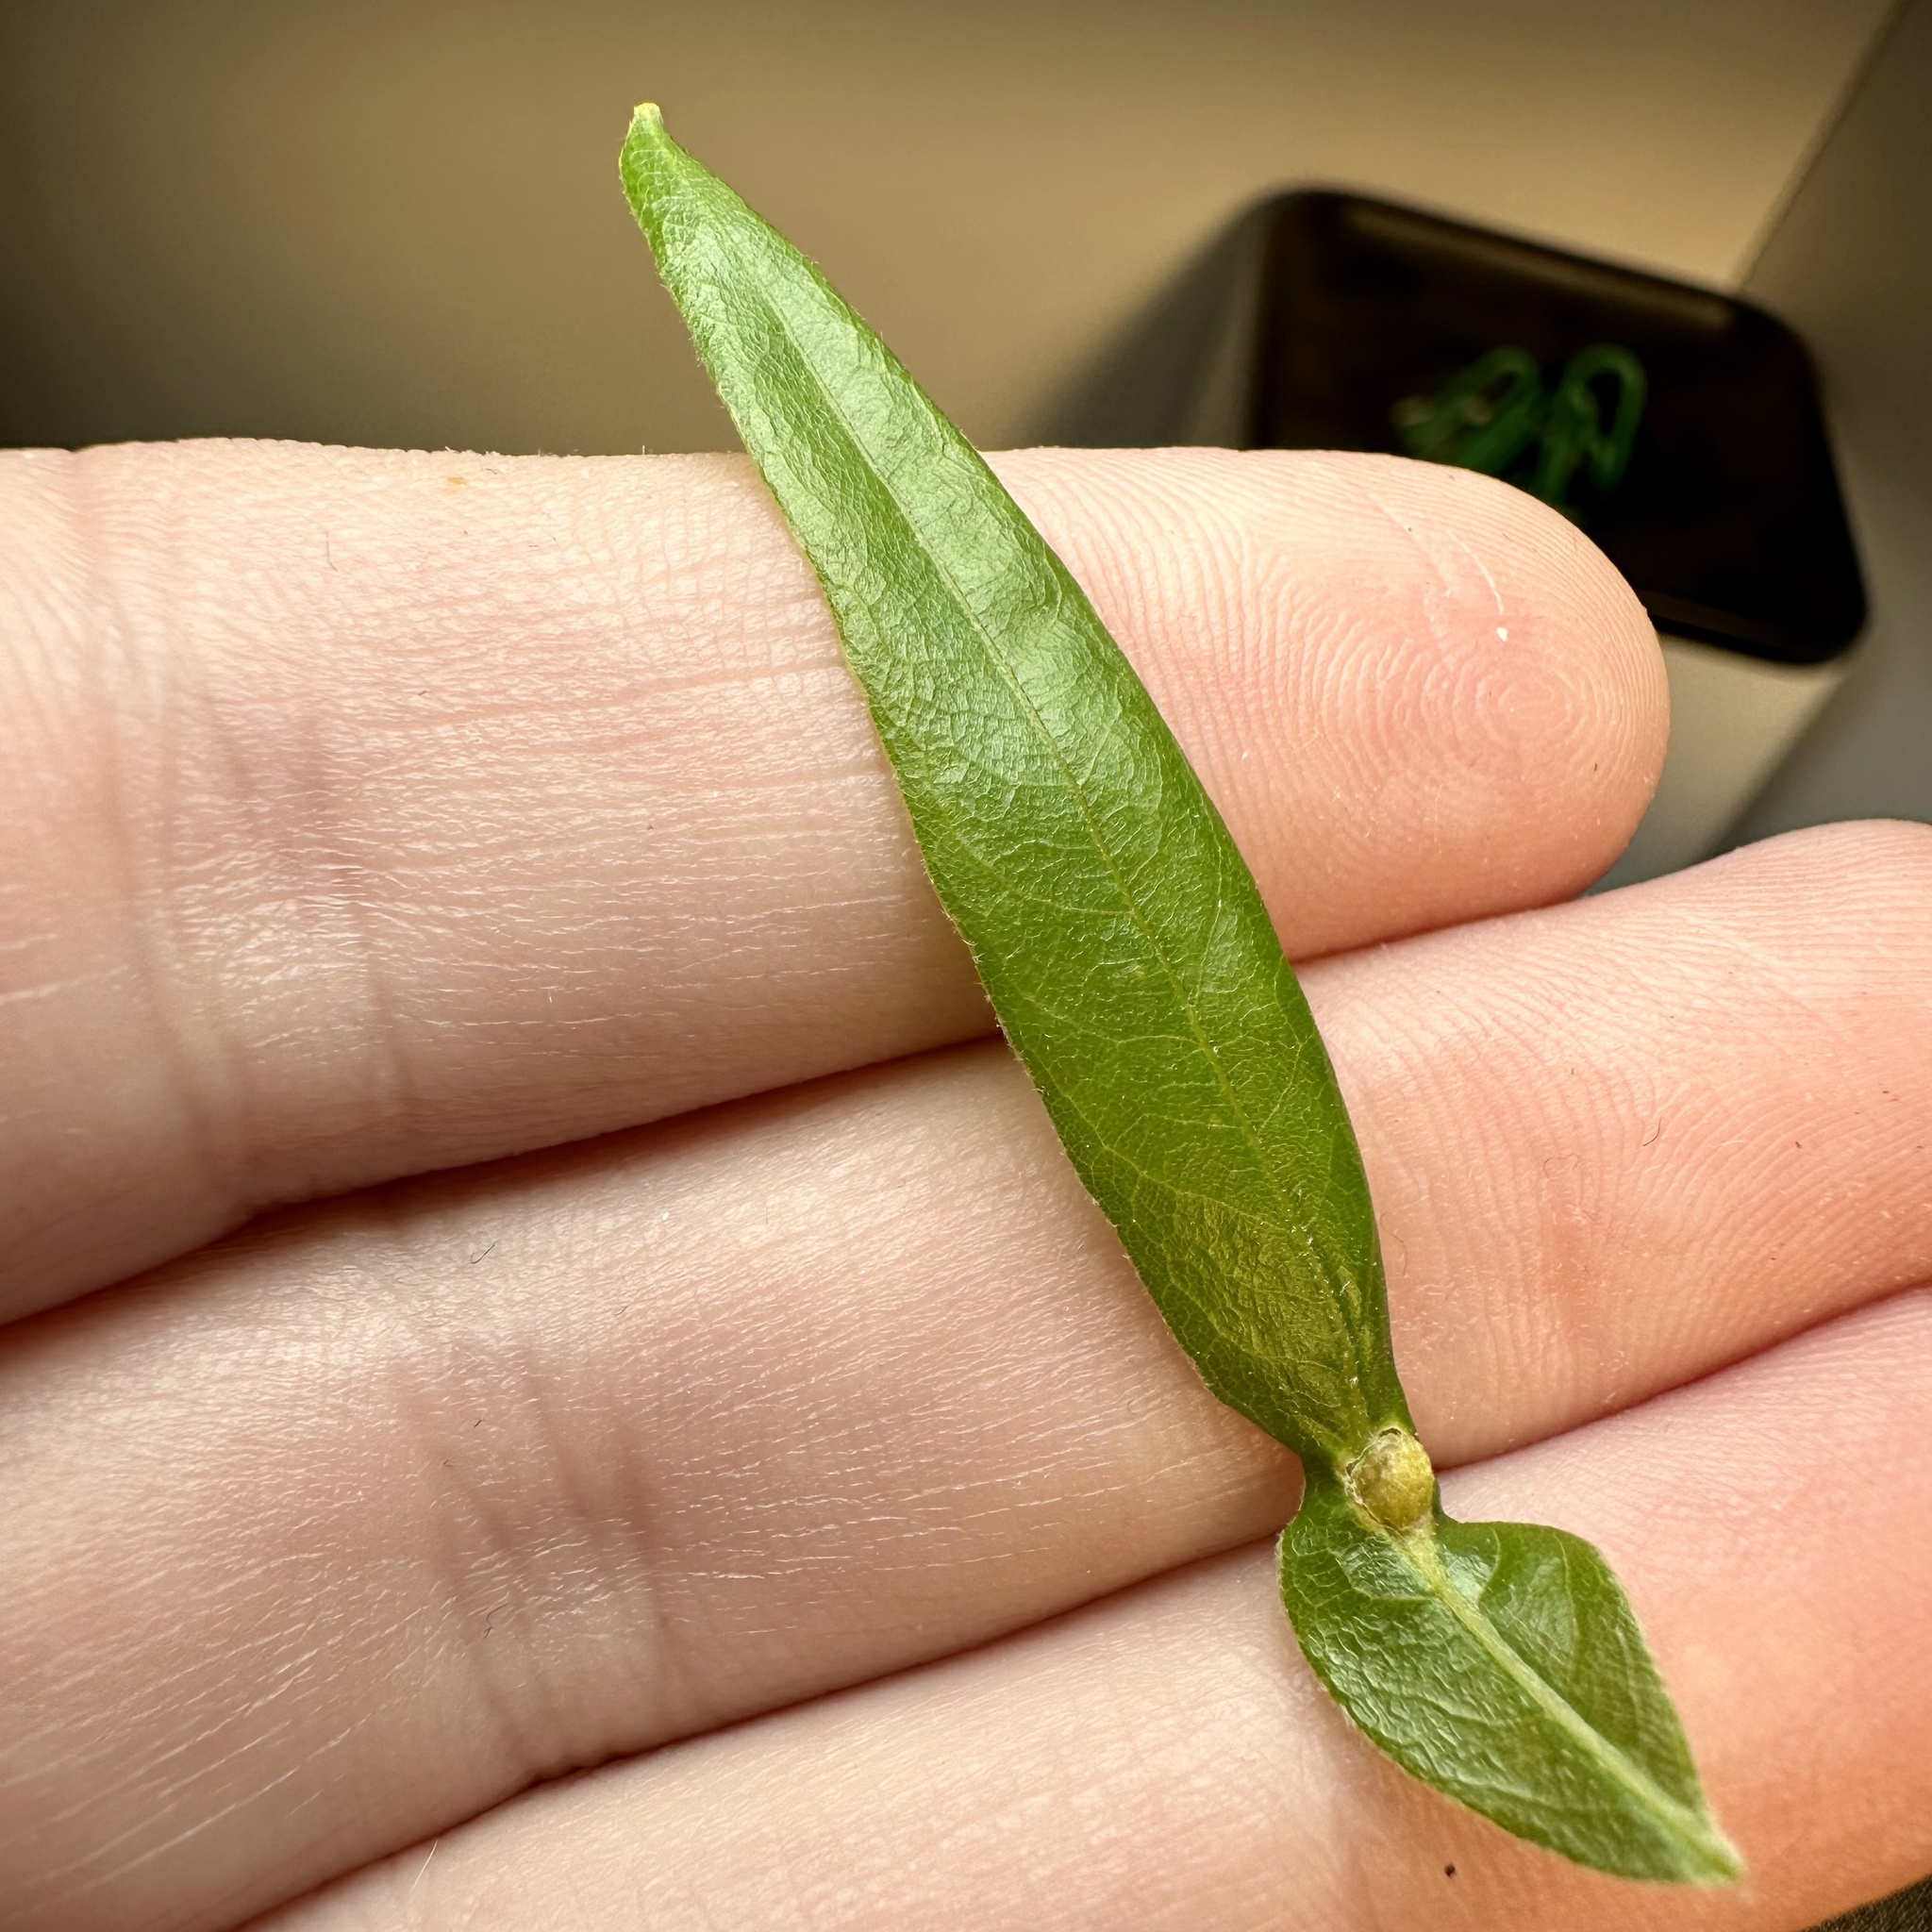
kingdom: Animalia
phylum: Arthropoda
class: Insecta
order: Hymenoptera
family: Cynipidae
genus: Dryocosmus
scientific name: Dryocosmus
